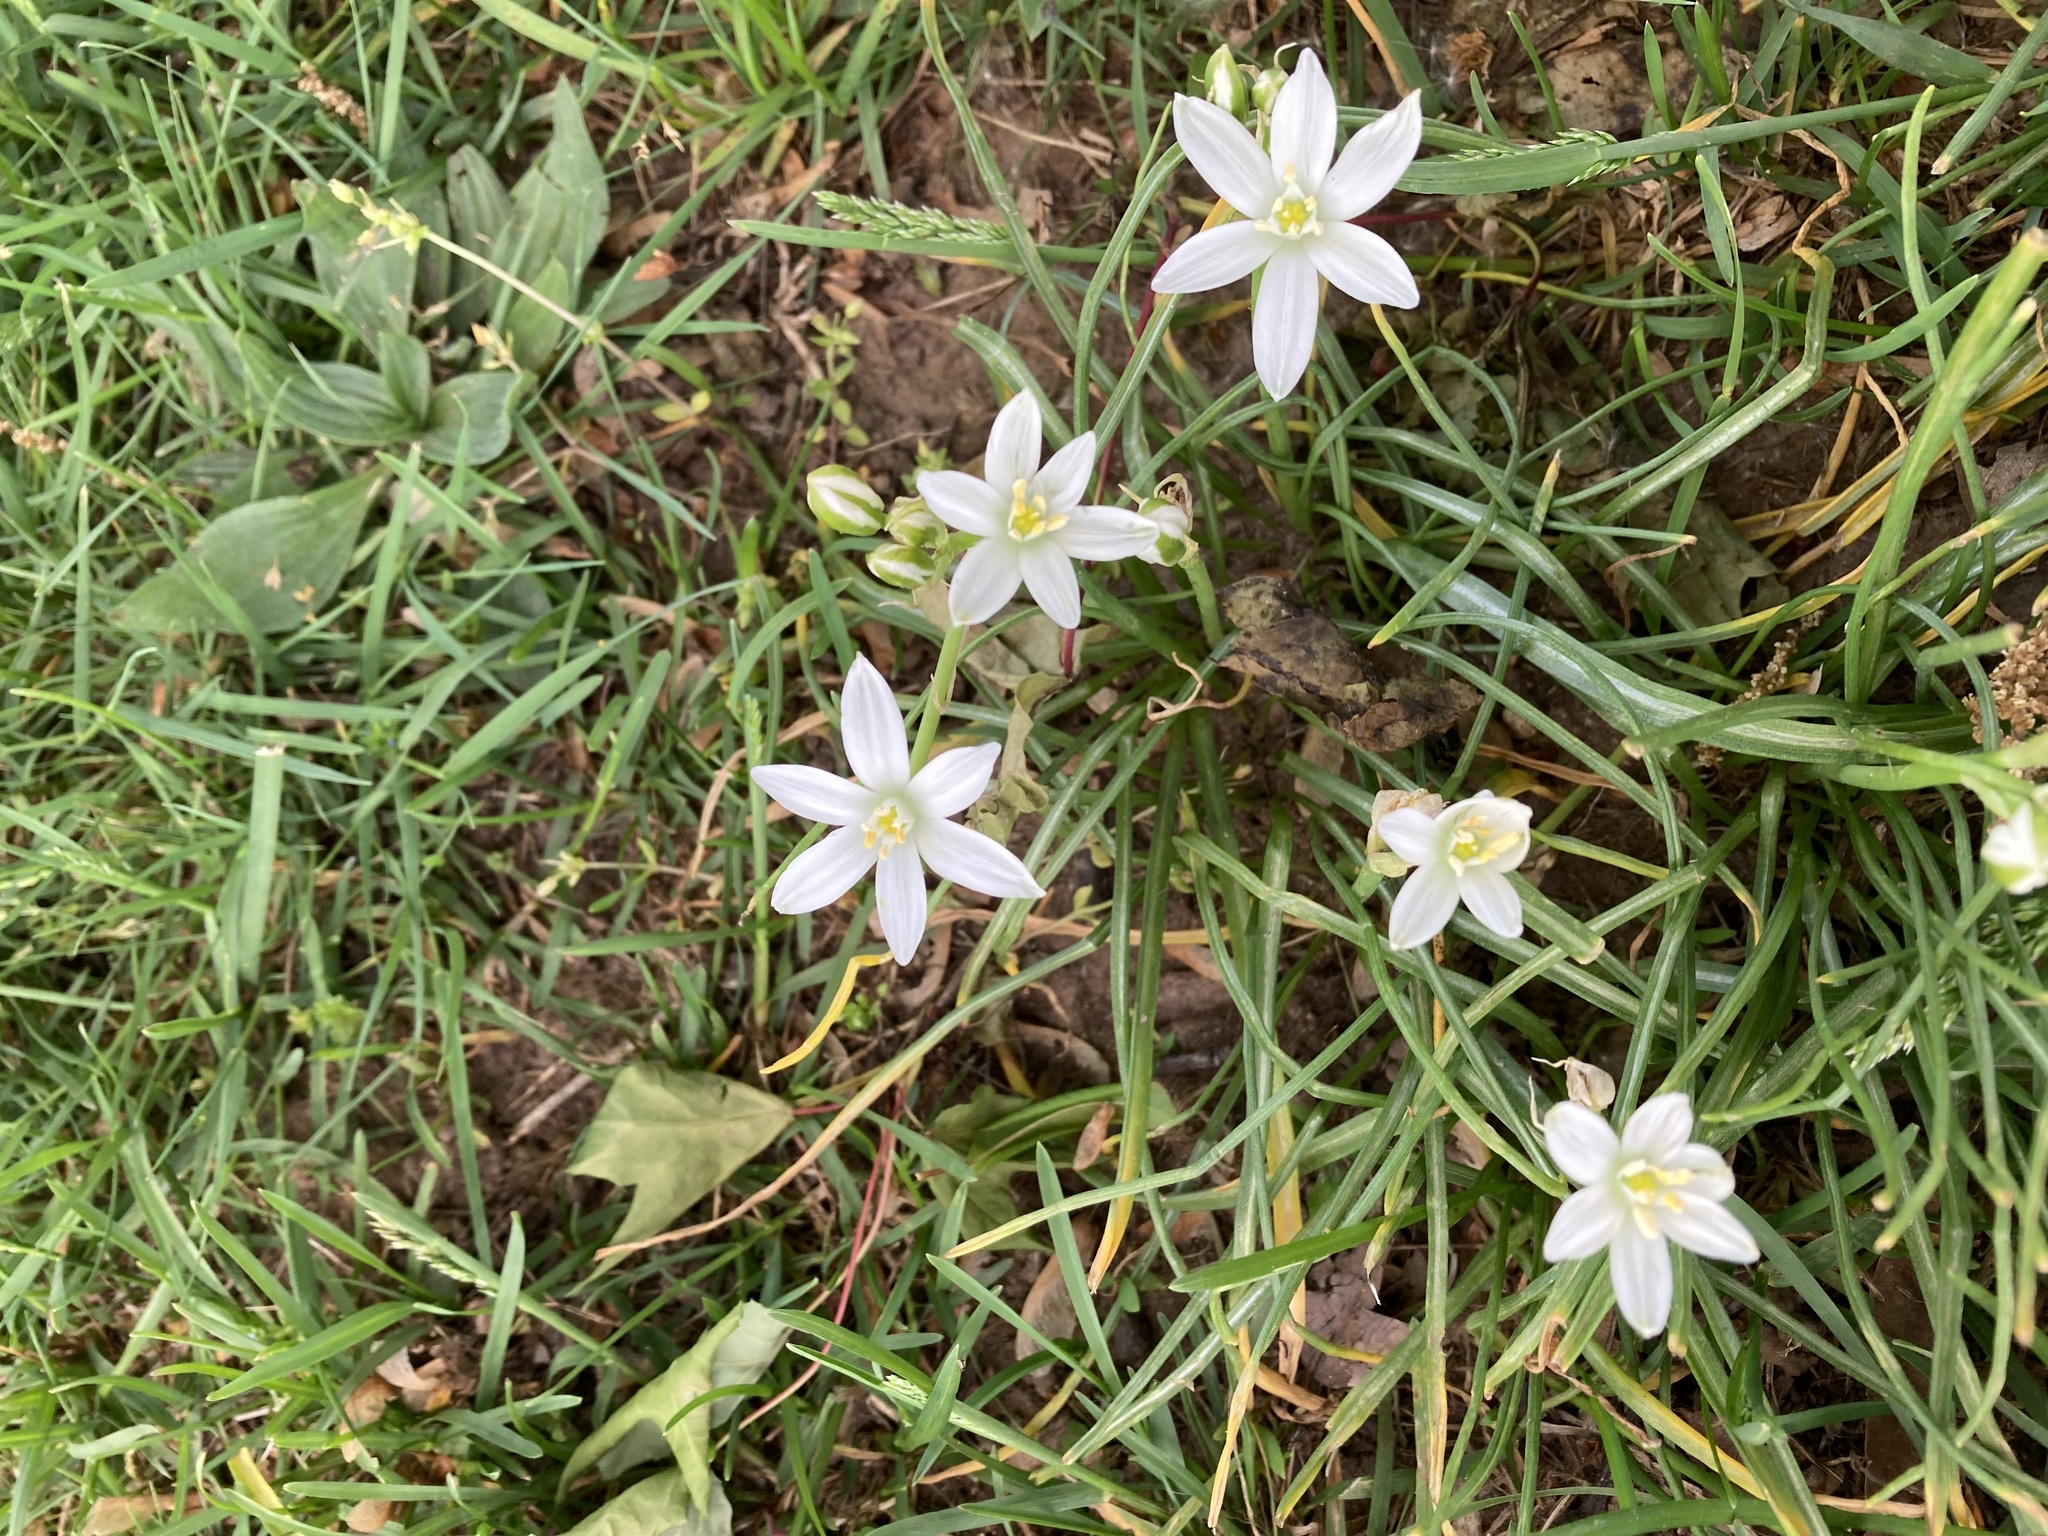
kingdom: Plantae
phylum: Tracheophyta
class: Liliopsida
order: Asparagales
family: Asparagaceae
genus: Ornithogalum
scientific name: Ornithogalum umbellatum
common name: Garden star-of-bethlehem
